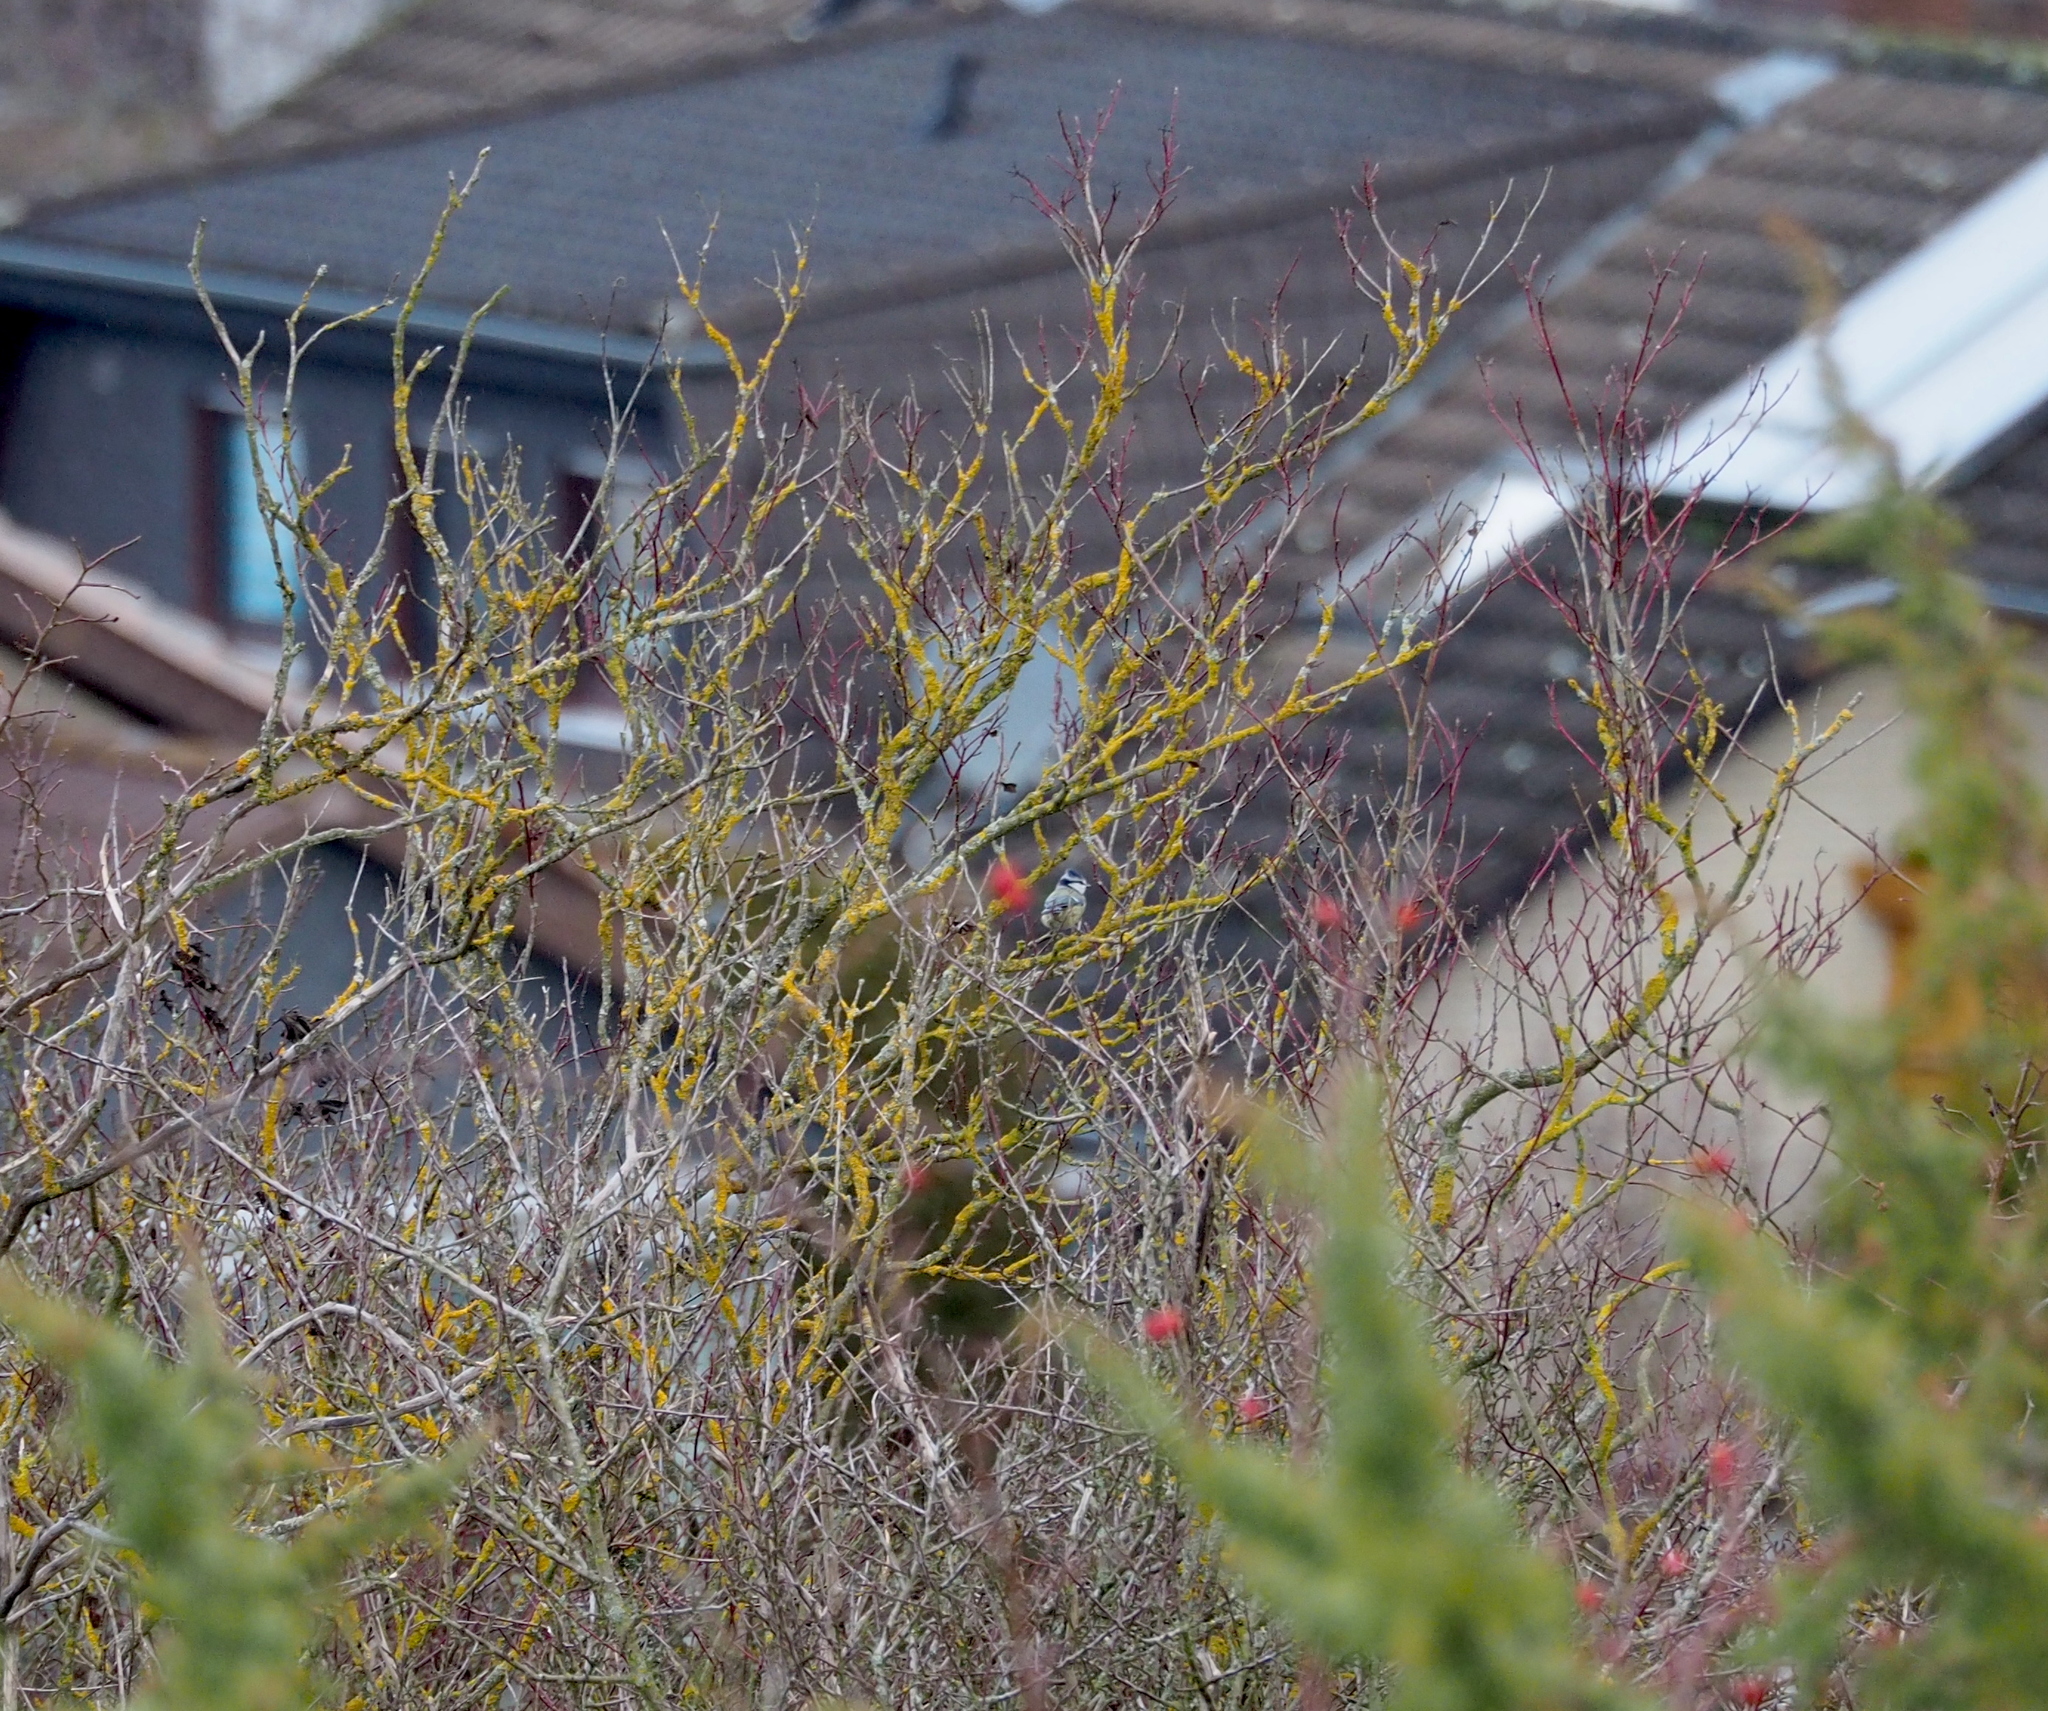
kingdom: Animalia
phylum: Chordata
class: Aves
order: Passeriformes
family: Paridae
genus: Cyanistes
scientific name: Cyanistes caeruleus
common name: Eurasian blue tit
